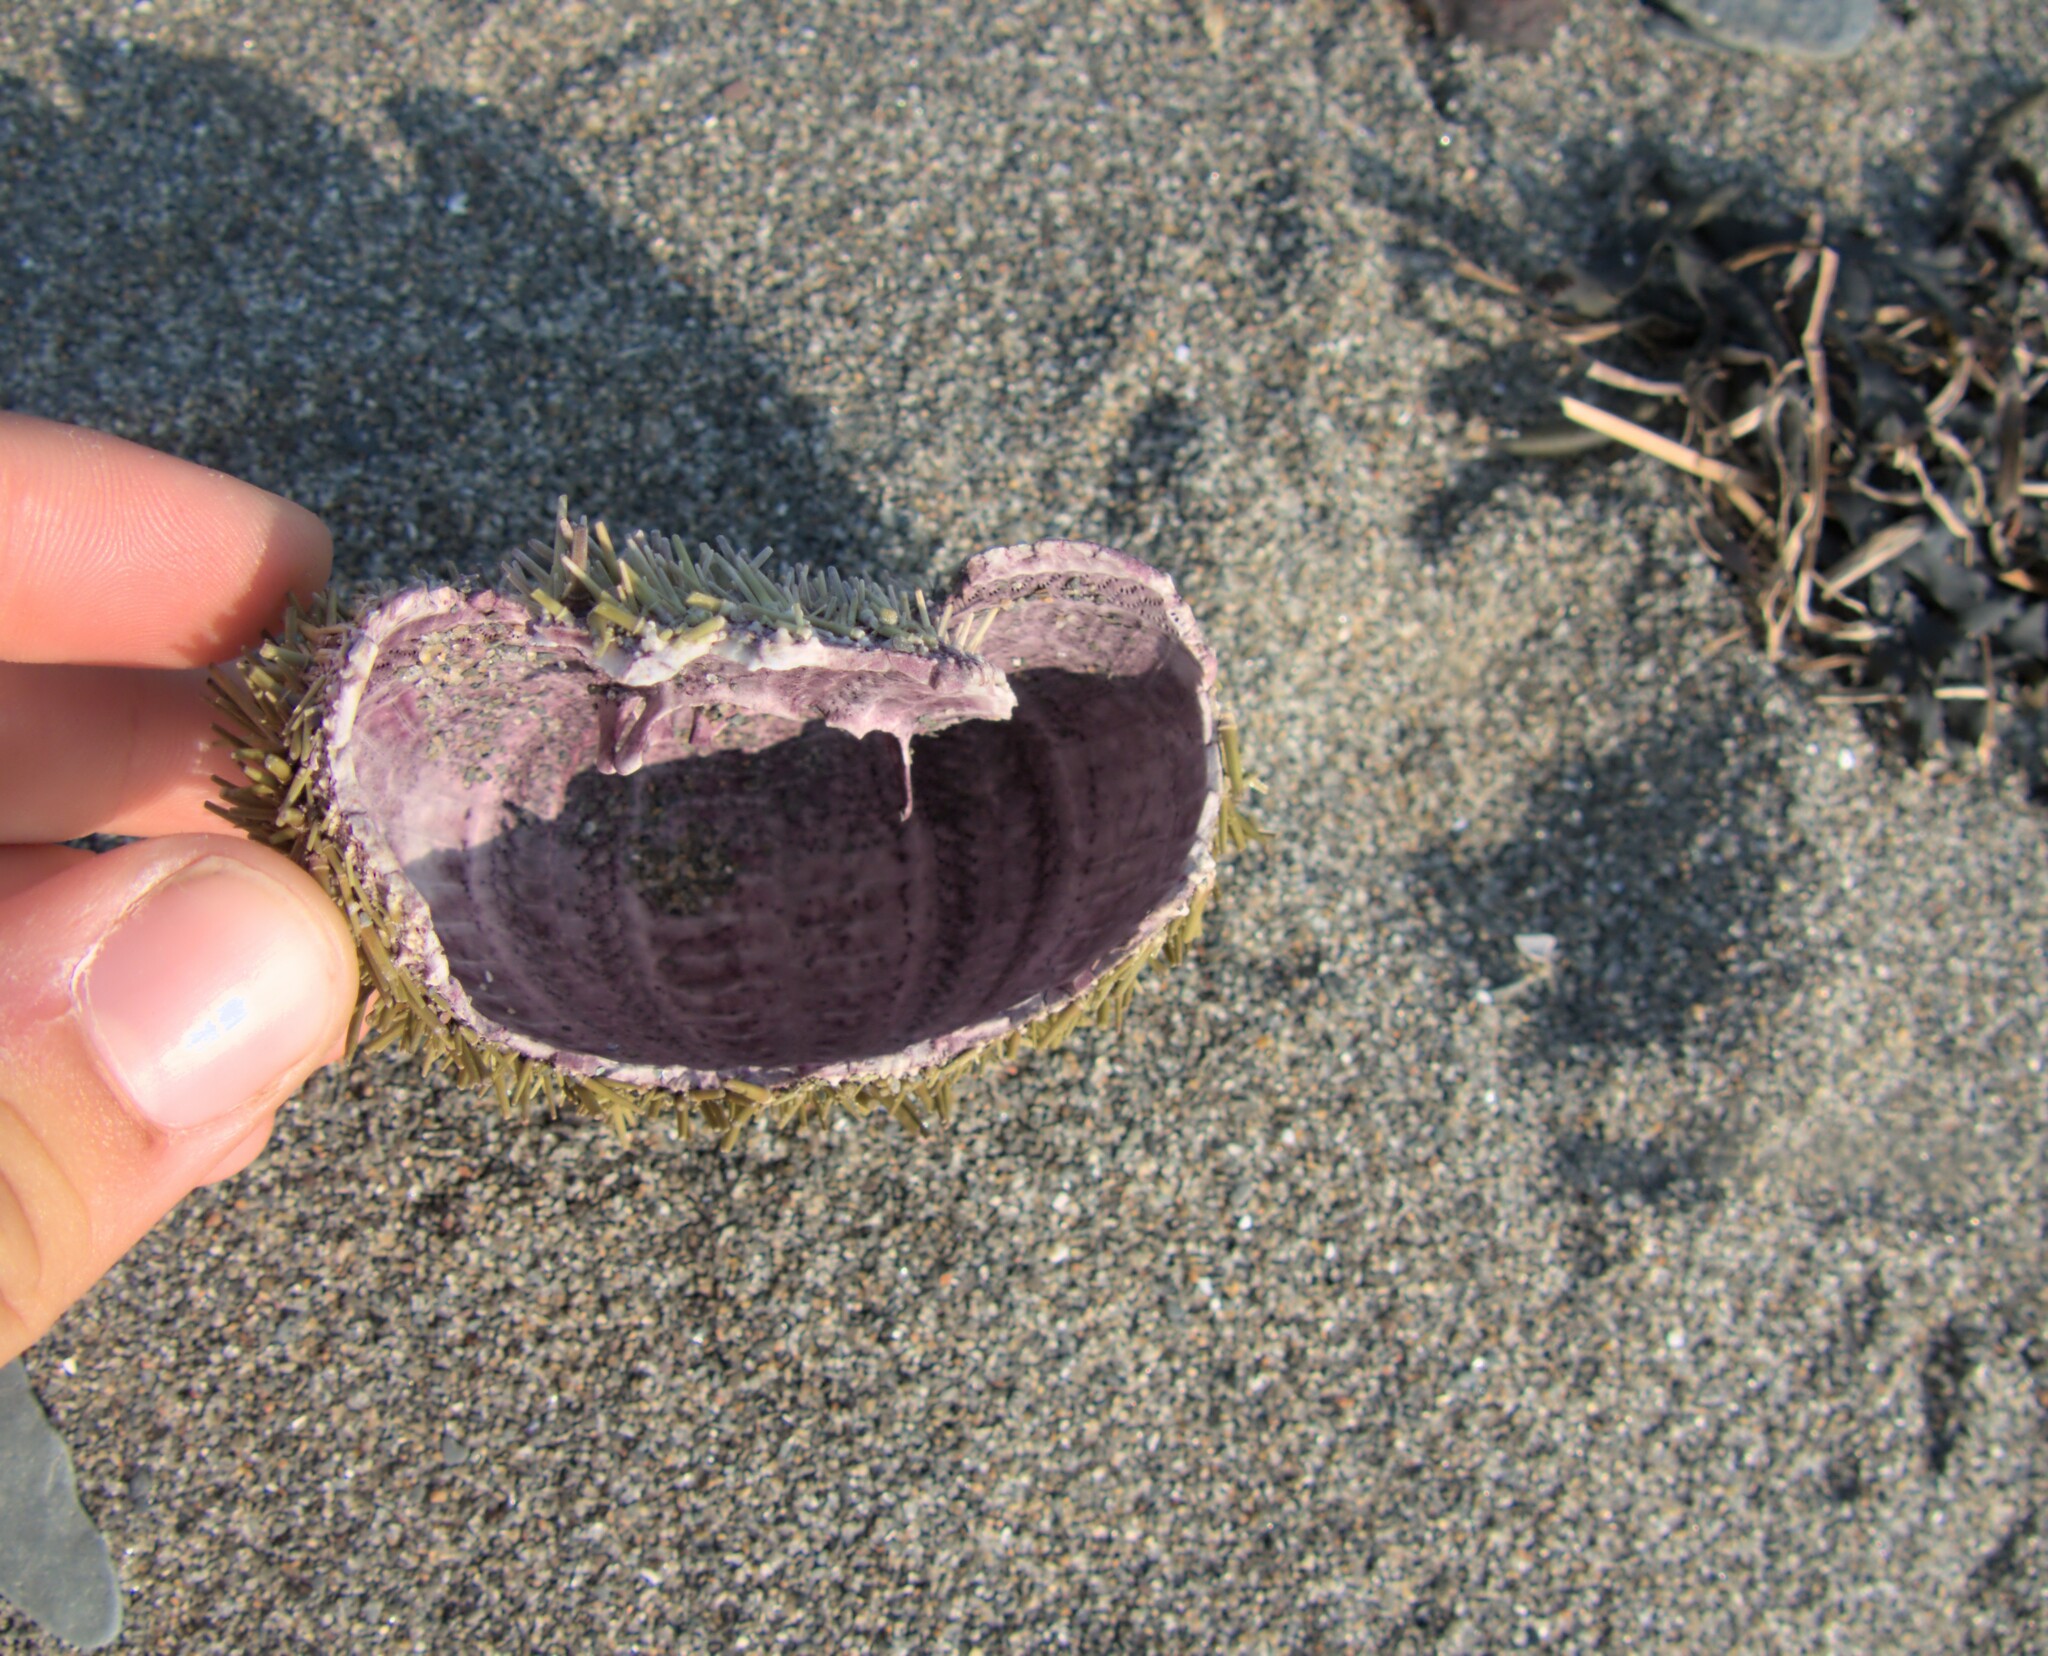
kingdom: Animalia
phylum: Echinodermata
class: Echinoidea
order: Camarodonta
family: Strongylocentrotidae
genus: Strongylocentrotus
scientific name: Strongylocentrotus droebachiensis
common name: Northern sea urchin
